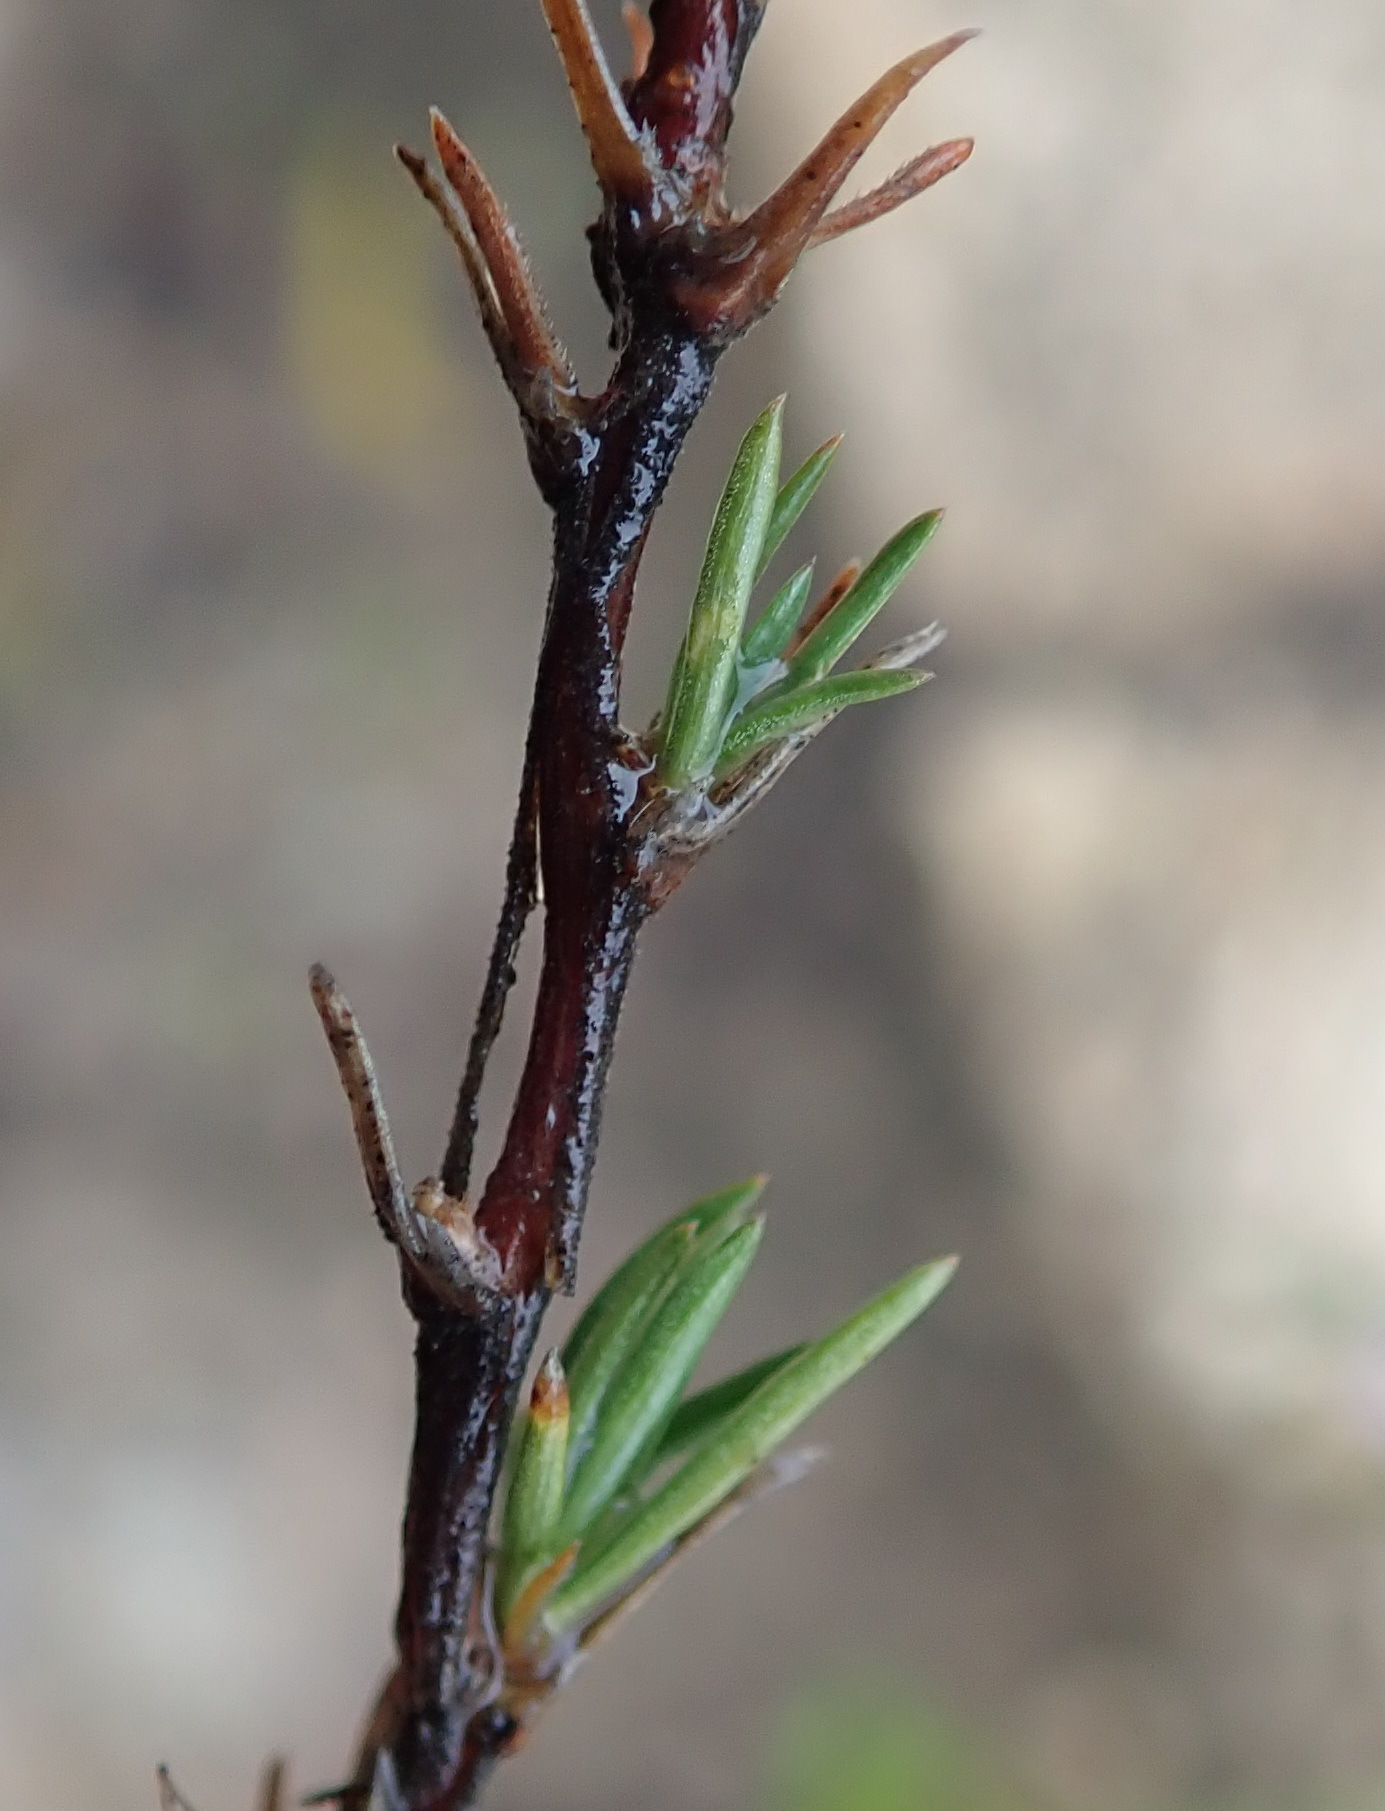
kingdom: Plantae
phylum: Tracheophyta
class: Magnoliopsida
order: Asterales
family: Campanulaceae
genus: Theilera
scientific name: Theilera guthriei
